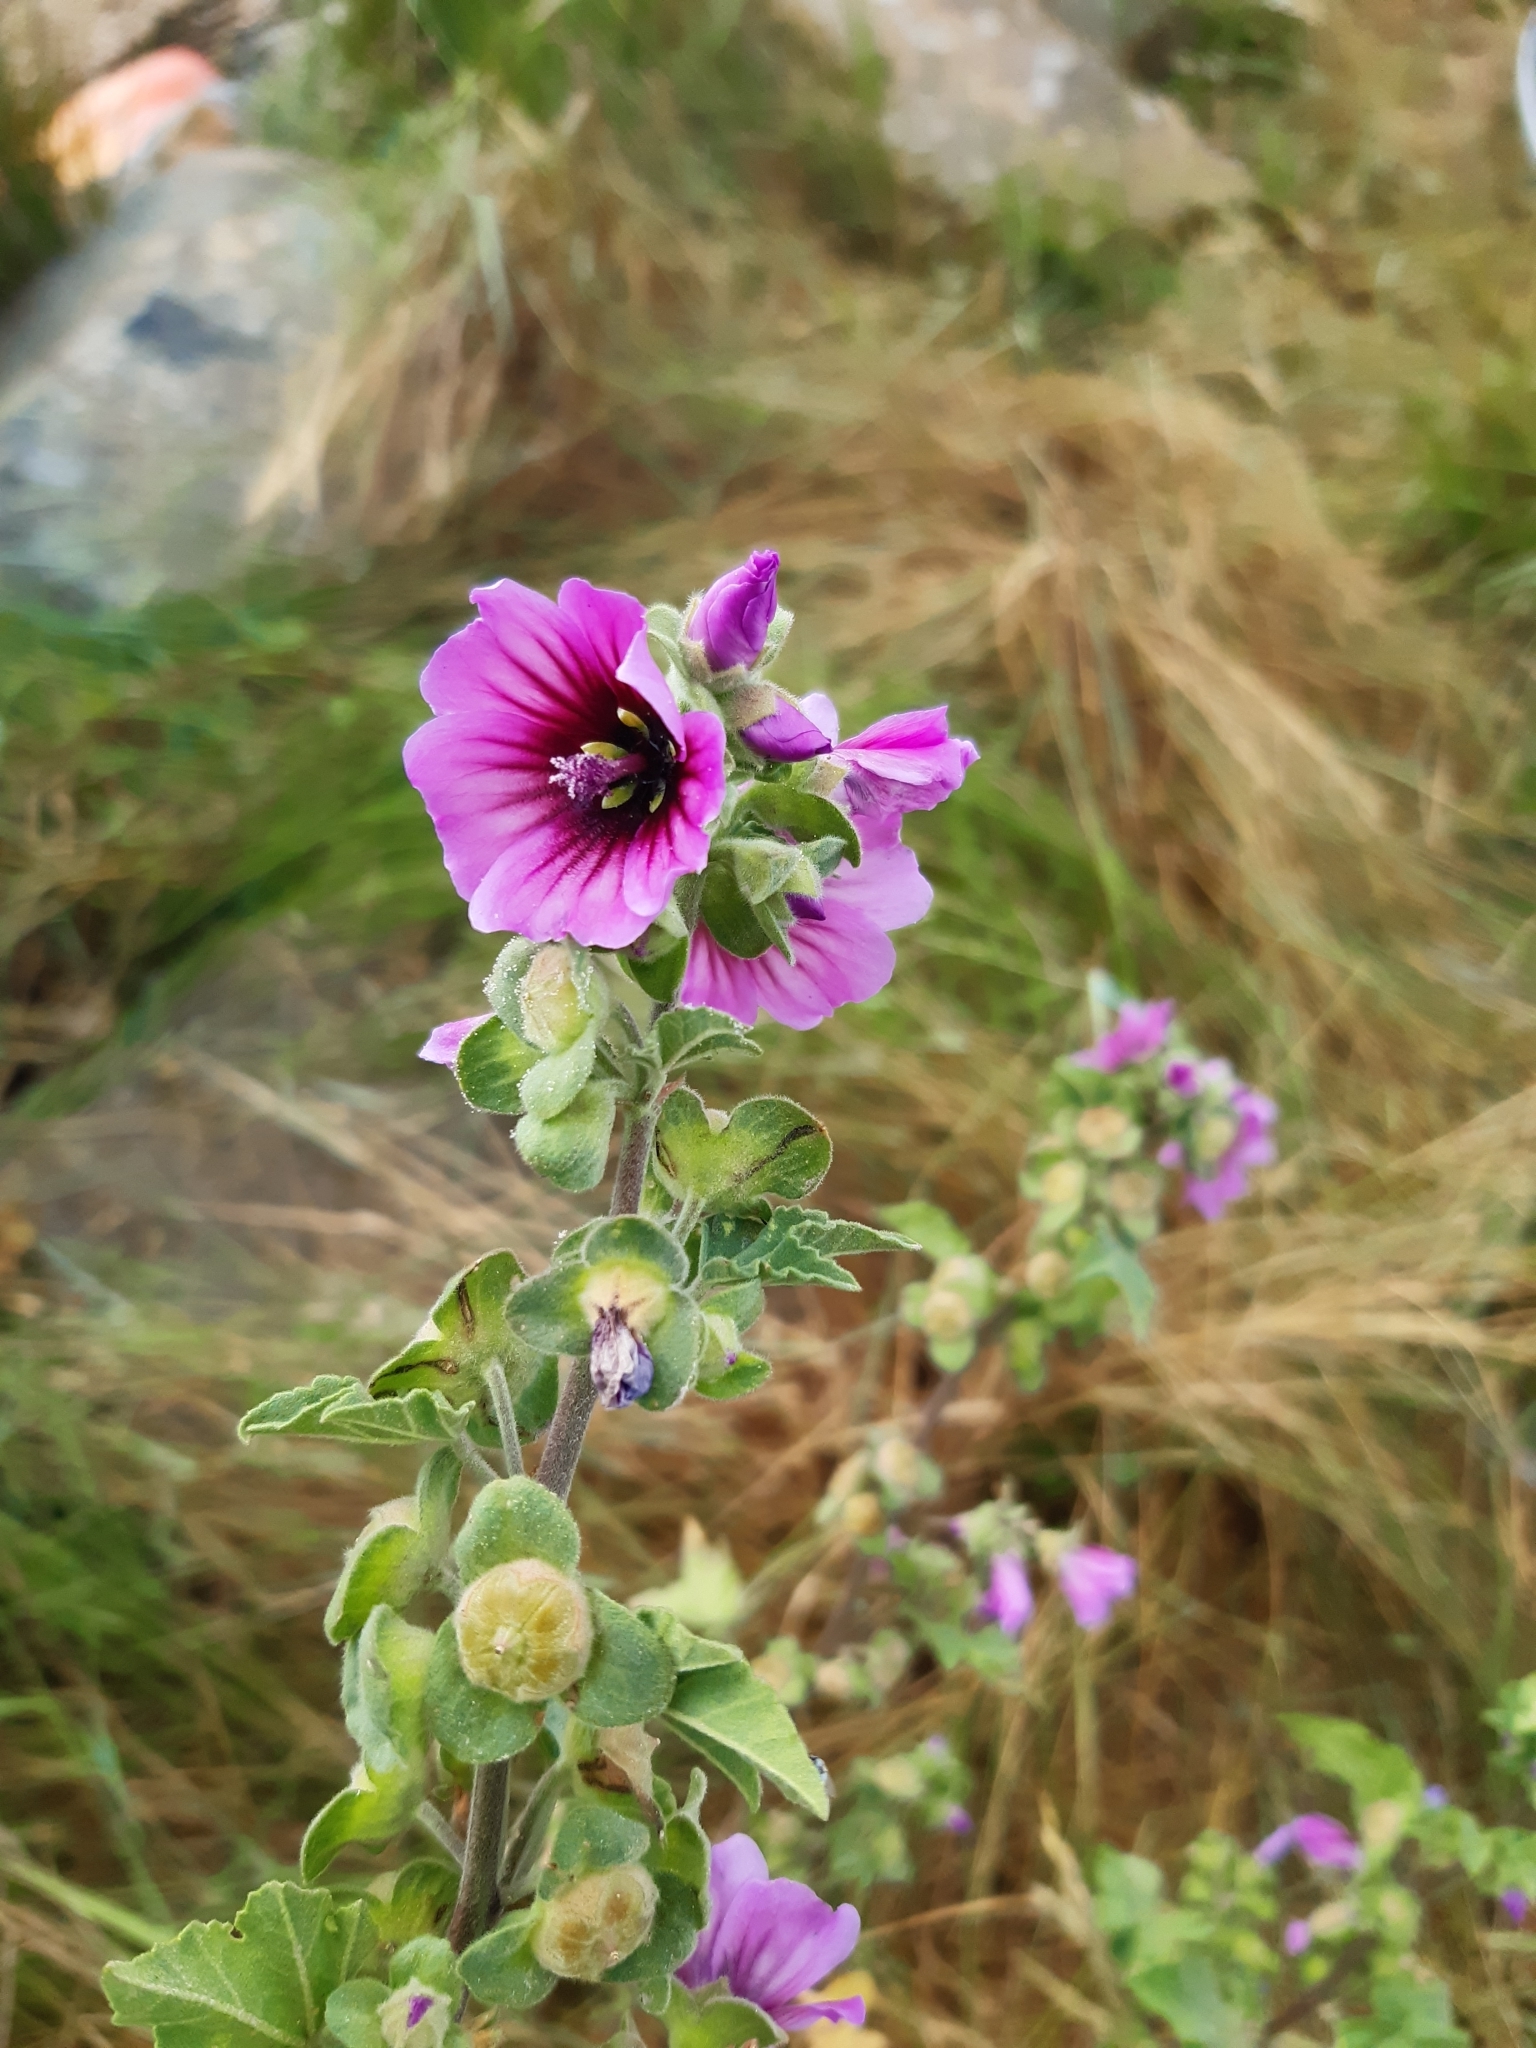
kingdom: Plantae
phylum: Tracheophyta
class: Magnoliopsida
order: Malvales
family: Malvaceae
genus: Malva
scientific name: Malva arborea
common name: Tree mallow
